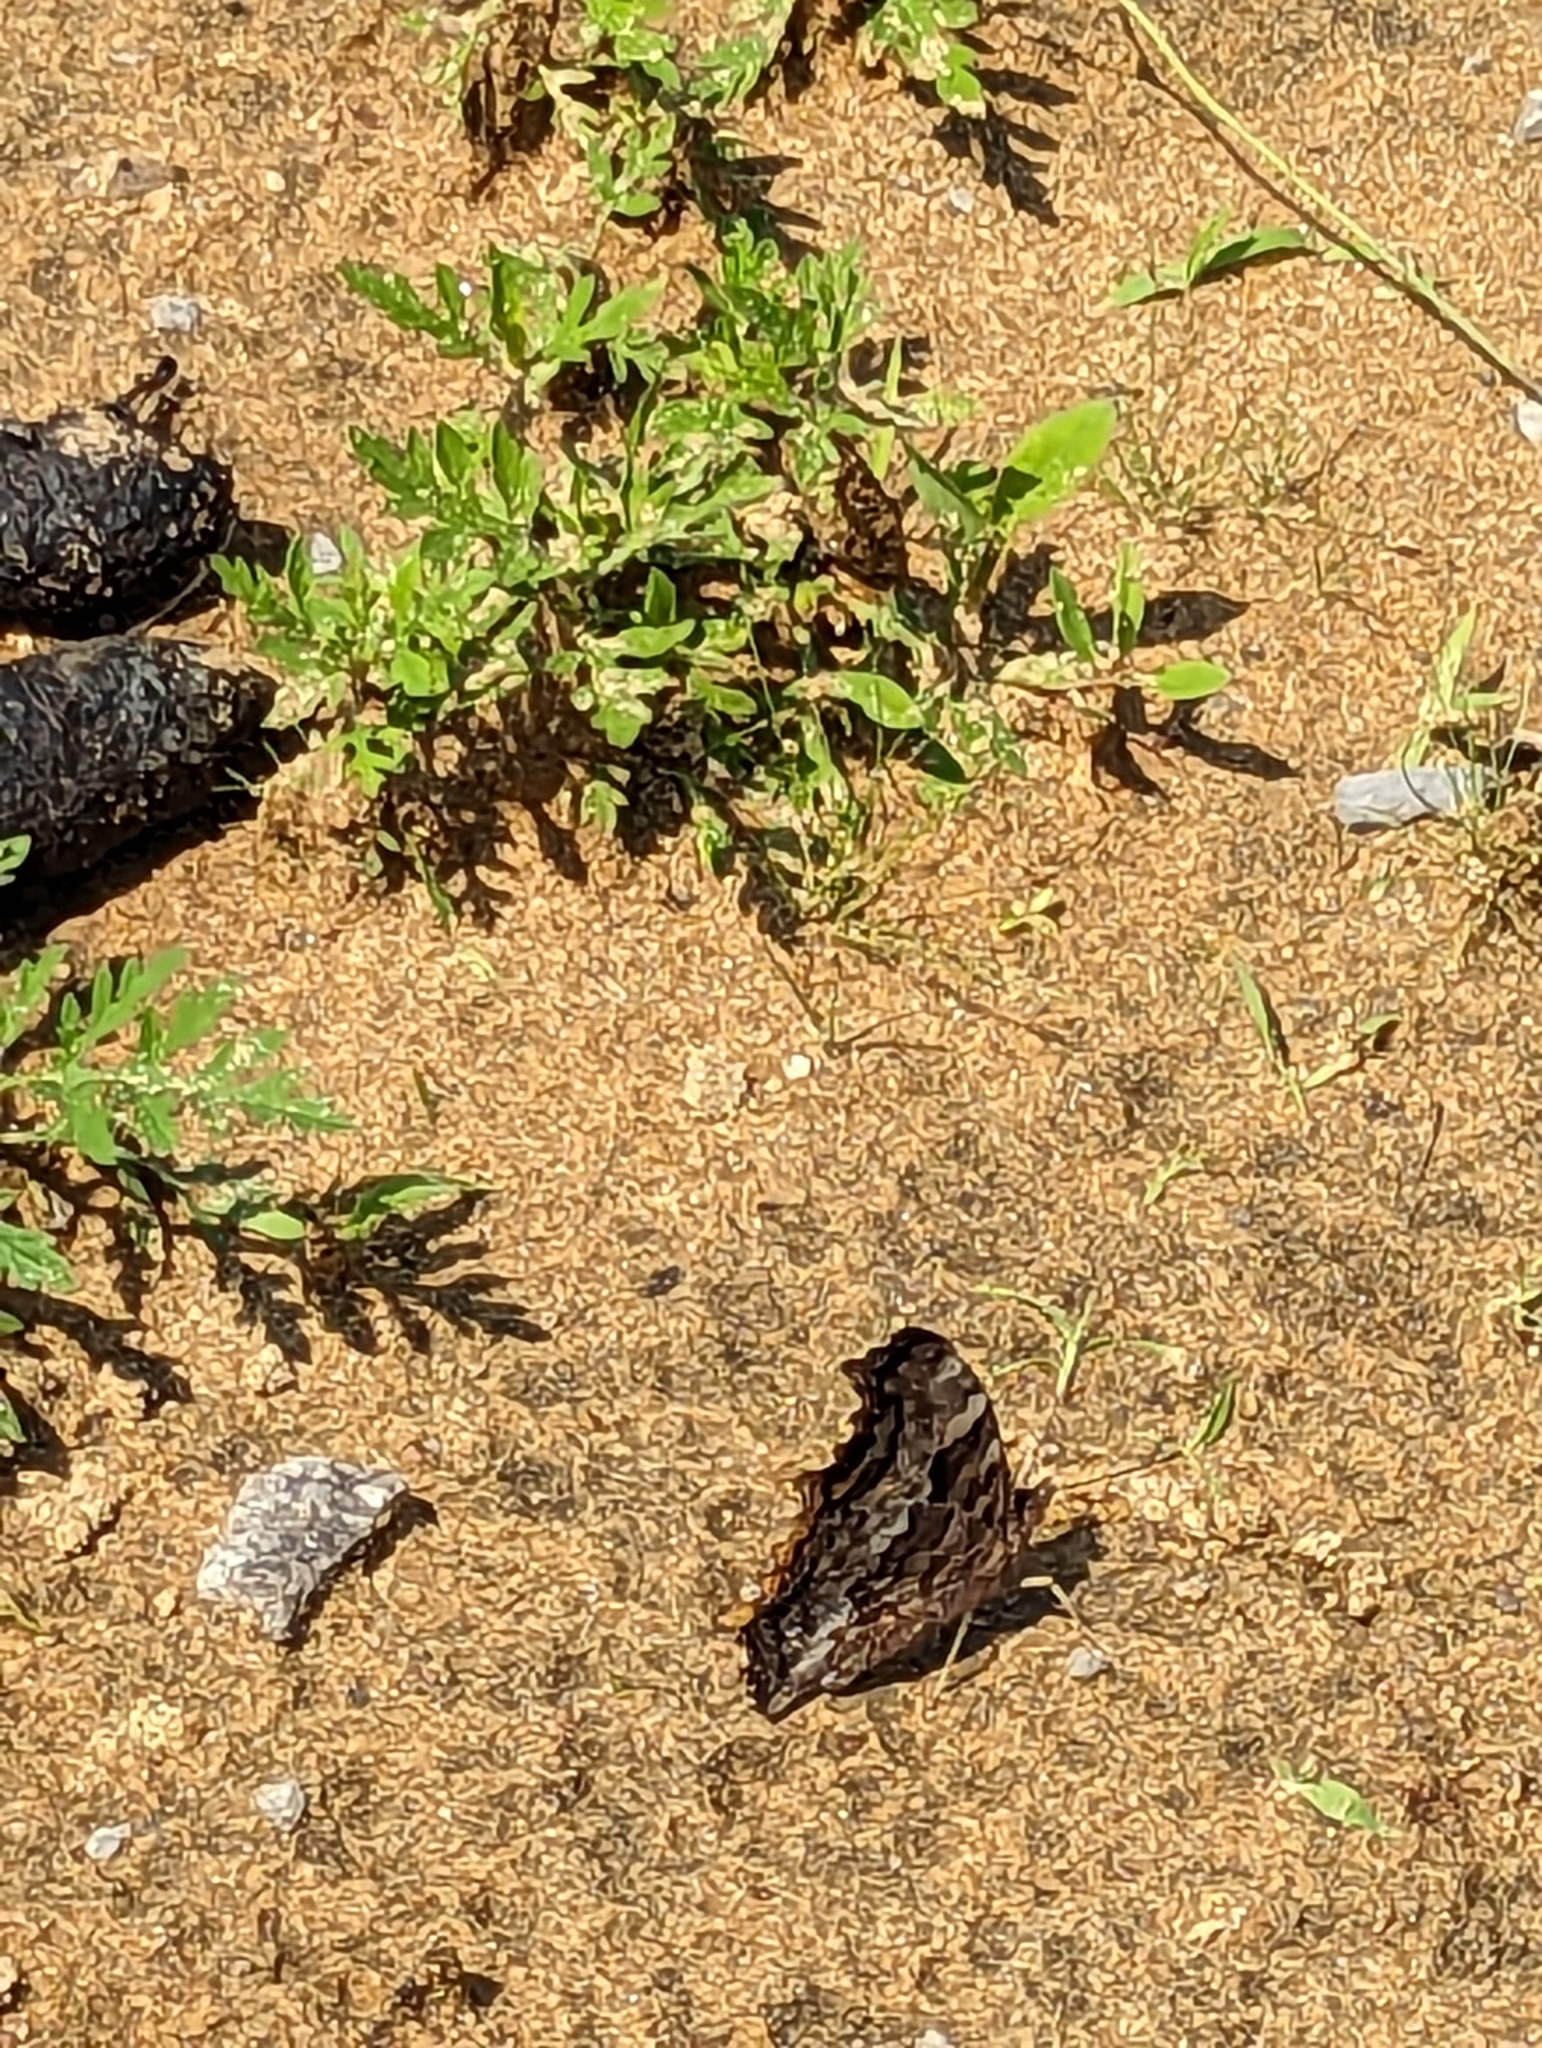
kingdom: Animalia
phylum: Arthropoda
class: Insecta
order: Lepidoptera
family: Nymphalidae
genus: Polygonia
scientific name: Polygonia vaualbum
